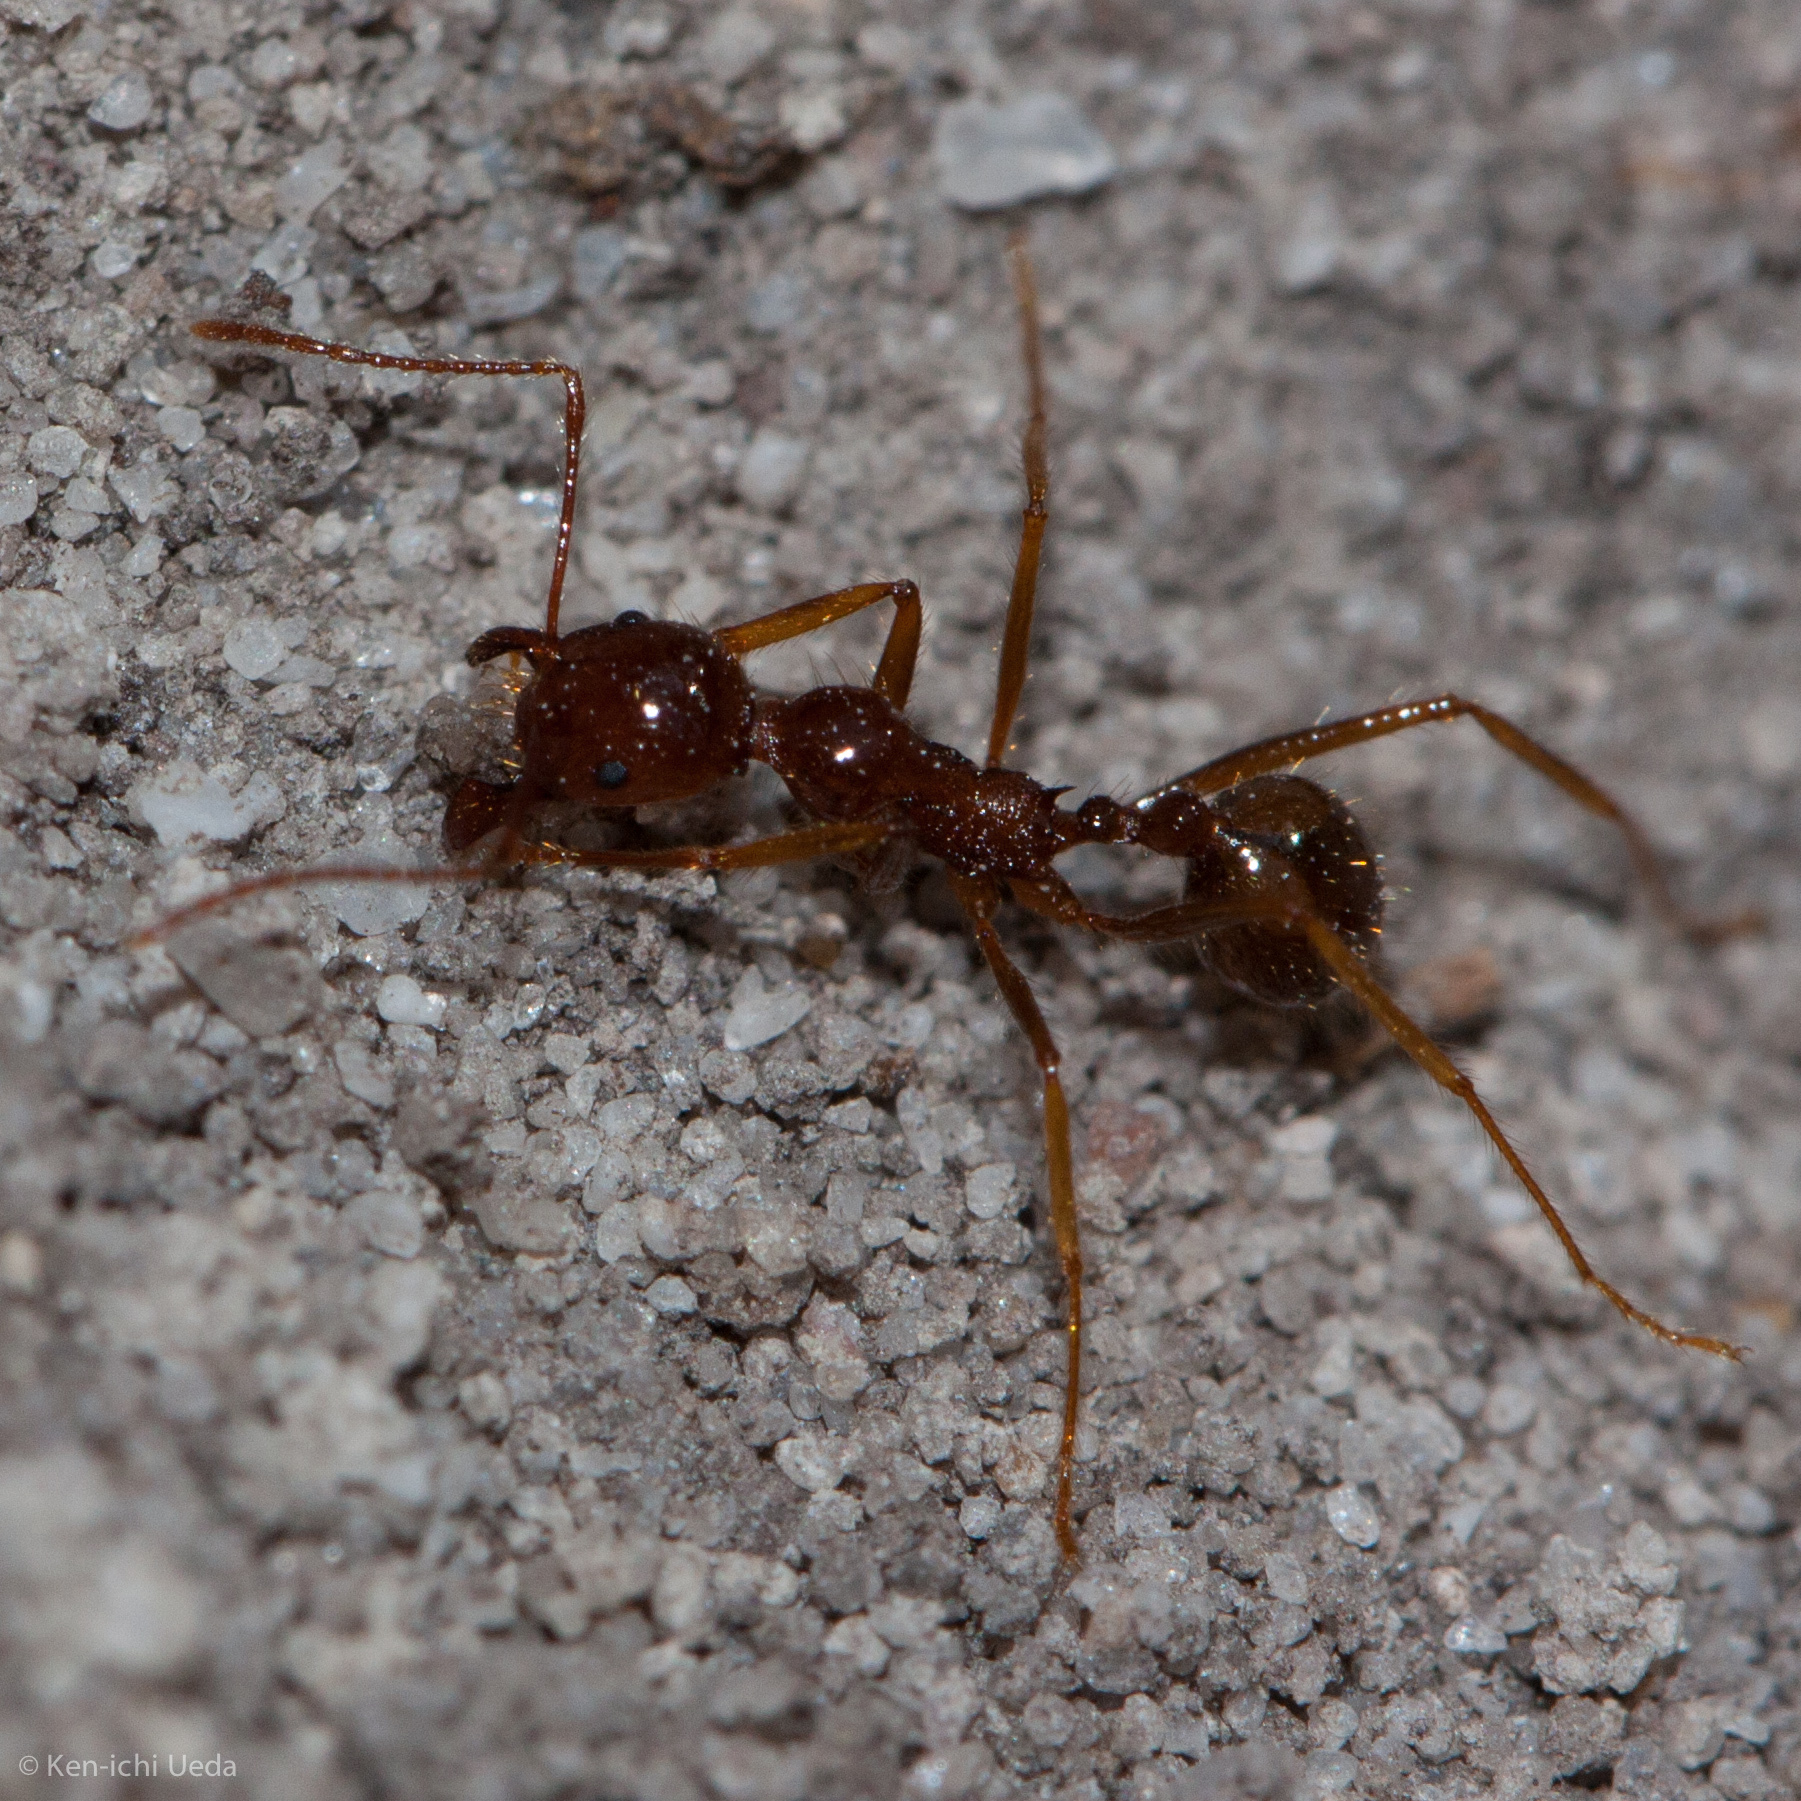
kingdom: Animalia
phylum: Arthropoda
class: Insecta
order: Hymenoptera
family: Formicidae
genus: Aphaenogaster
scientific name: Aphaenogaster longiceps
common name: Funnel ant
